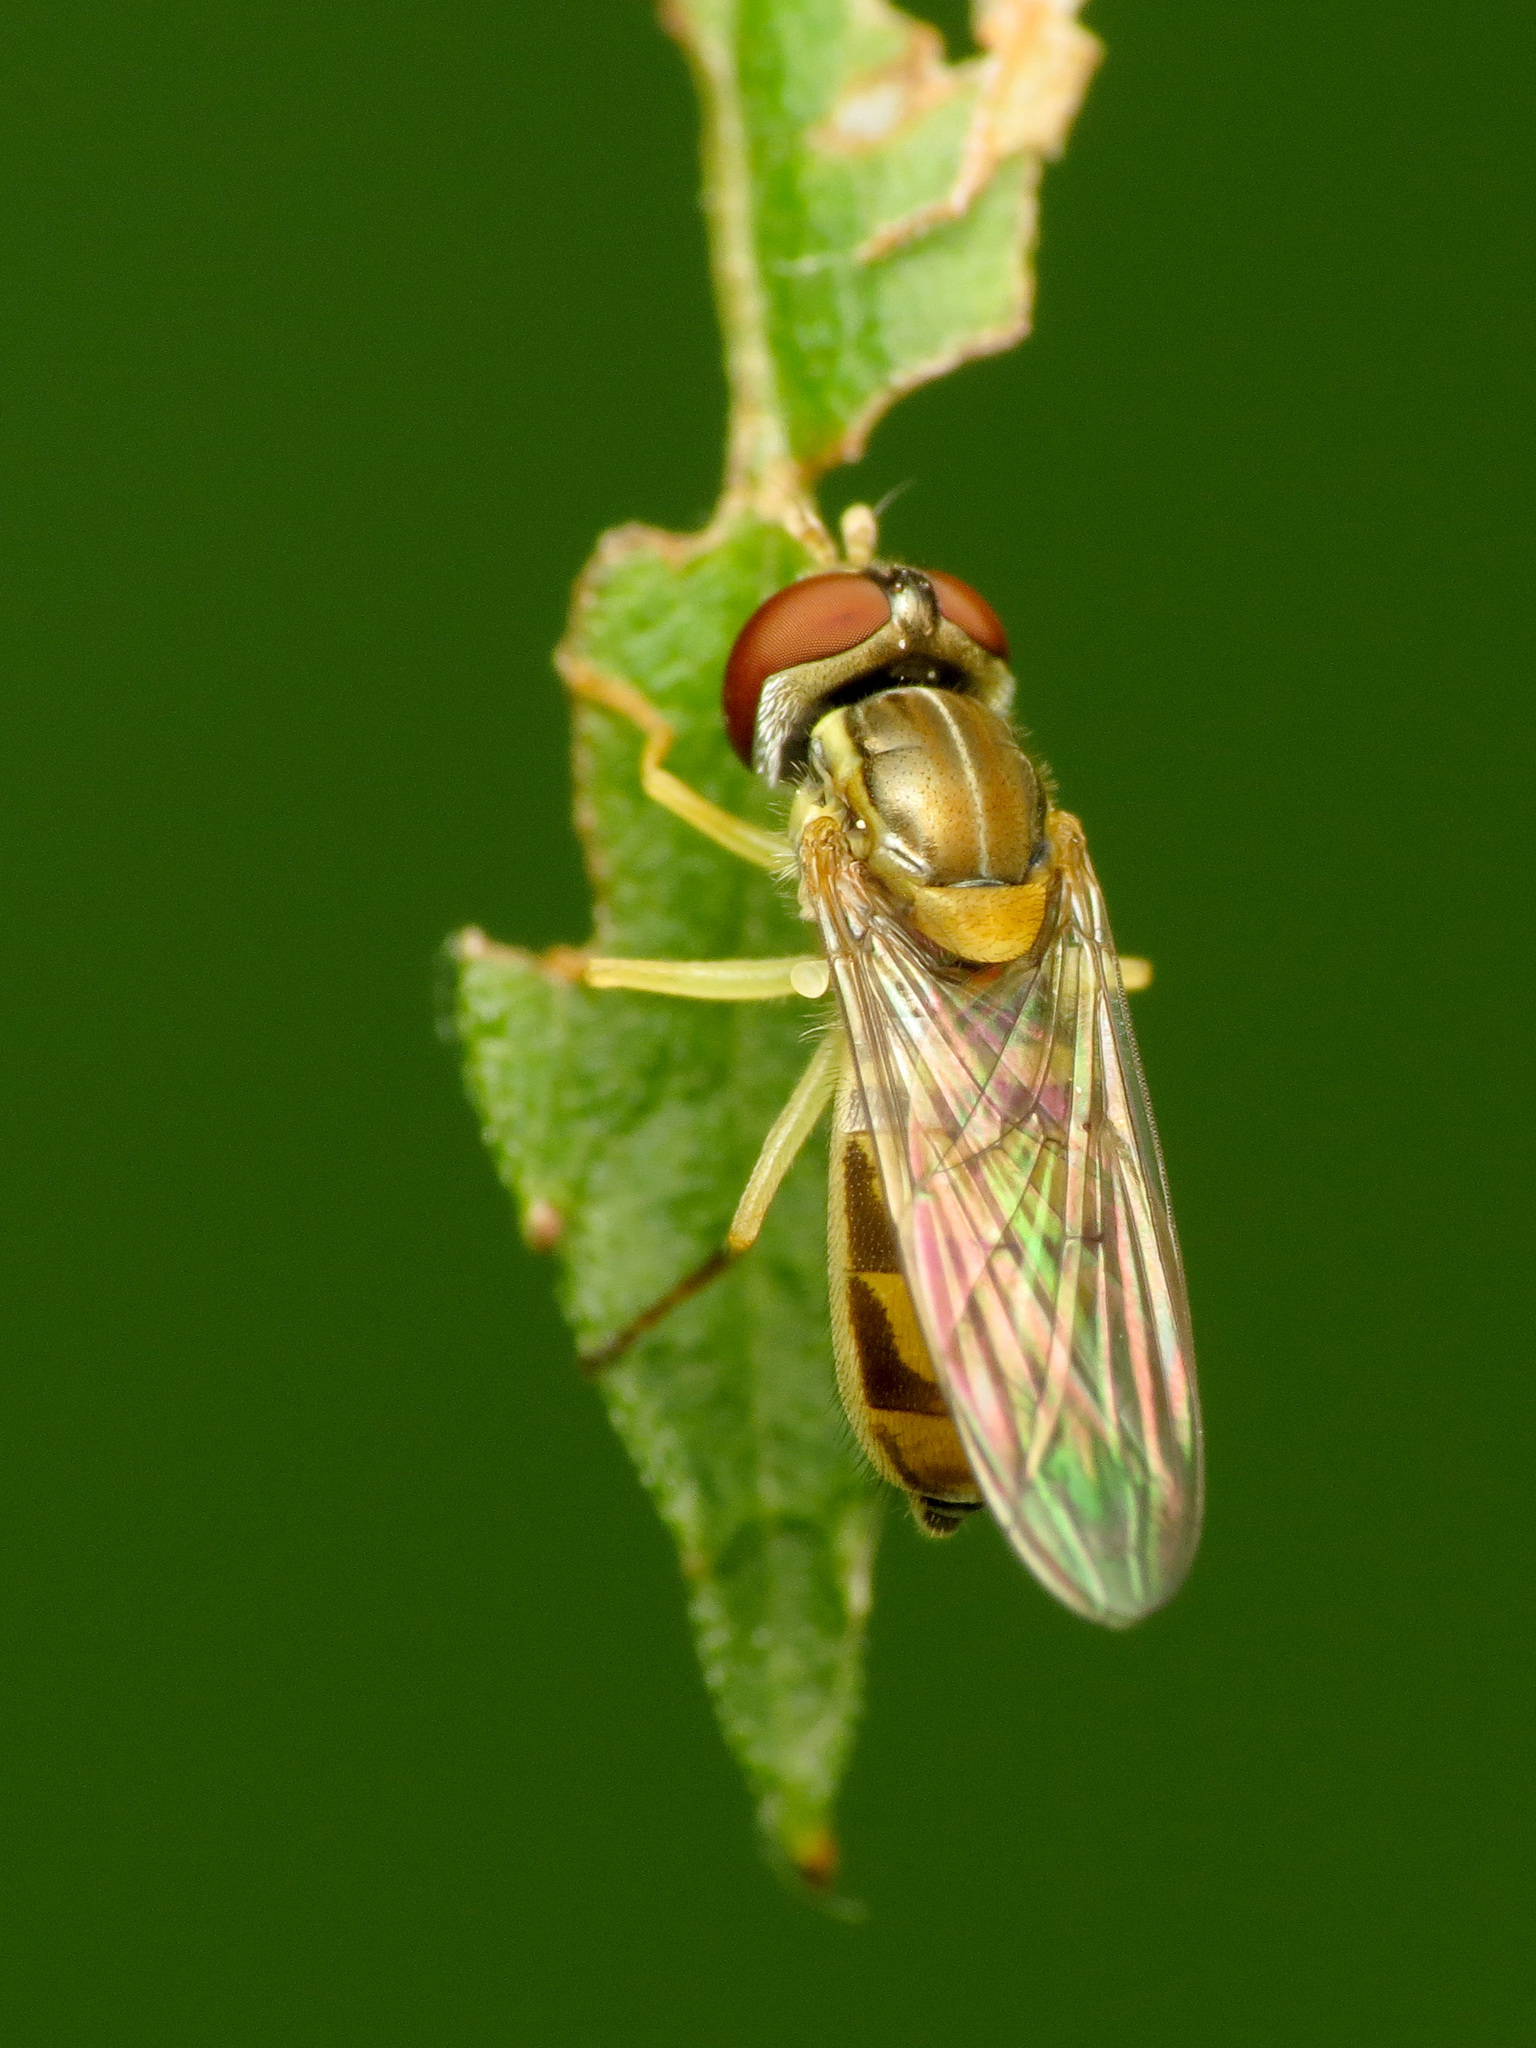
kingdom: Animalia
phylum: Arthropoda
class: Insecta
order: Diptera
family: Syrphidae
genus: Toxomerus
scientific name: Toxomerus marginatus
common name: Syrphid fly
